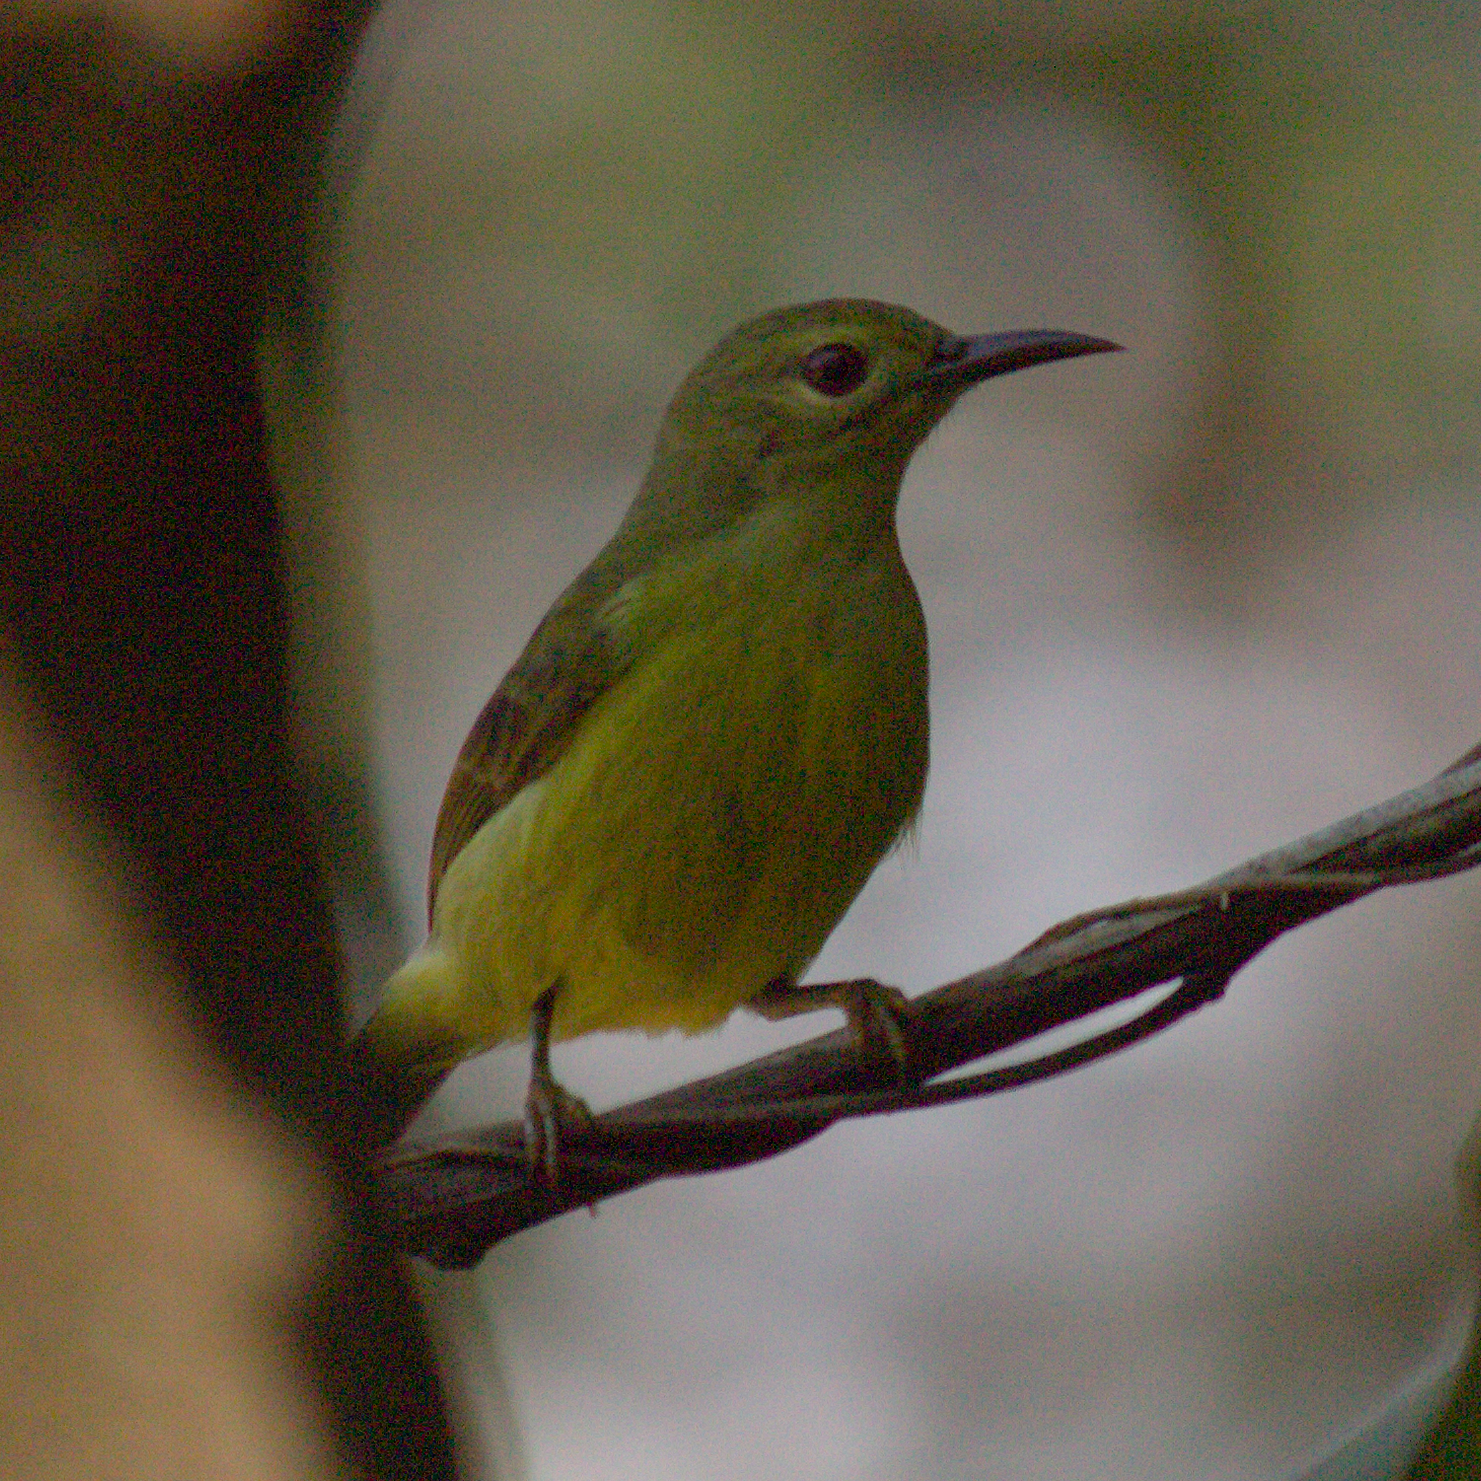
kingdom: Animalia
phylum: Chordata
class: Aves
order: Passeriformes
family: Nectariniidae
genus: Anthreptes
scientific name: Anthreptes malacensis
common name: Brown-throated sunbird
